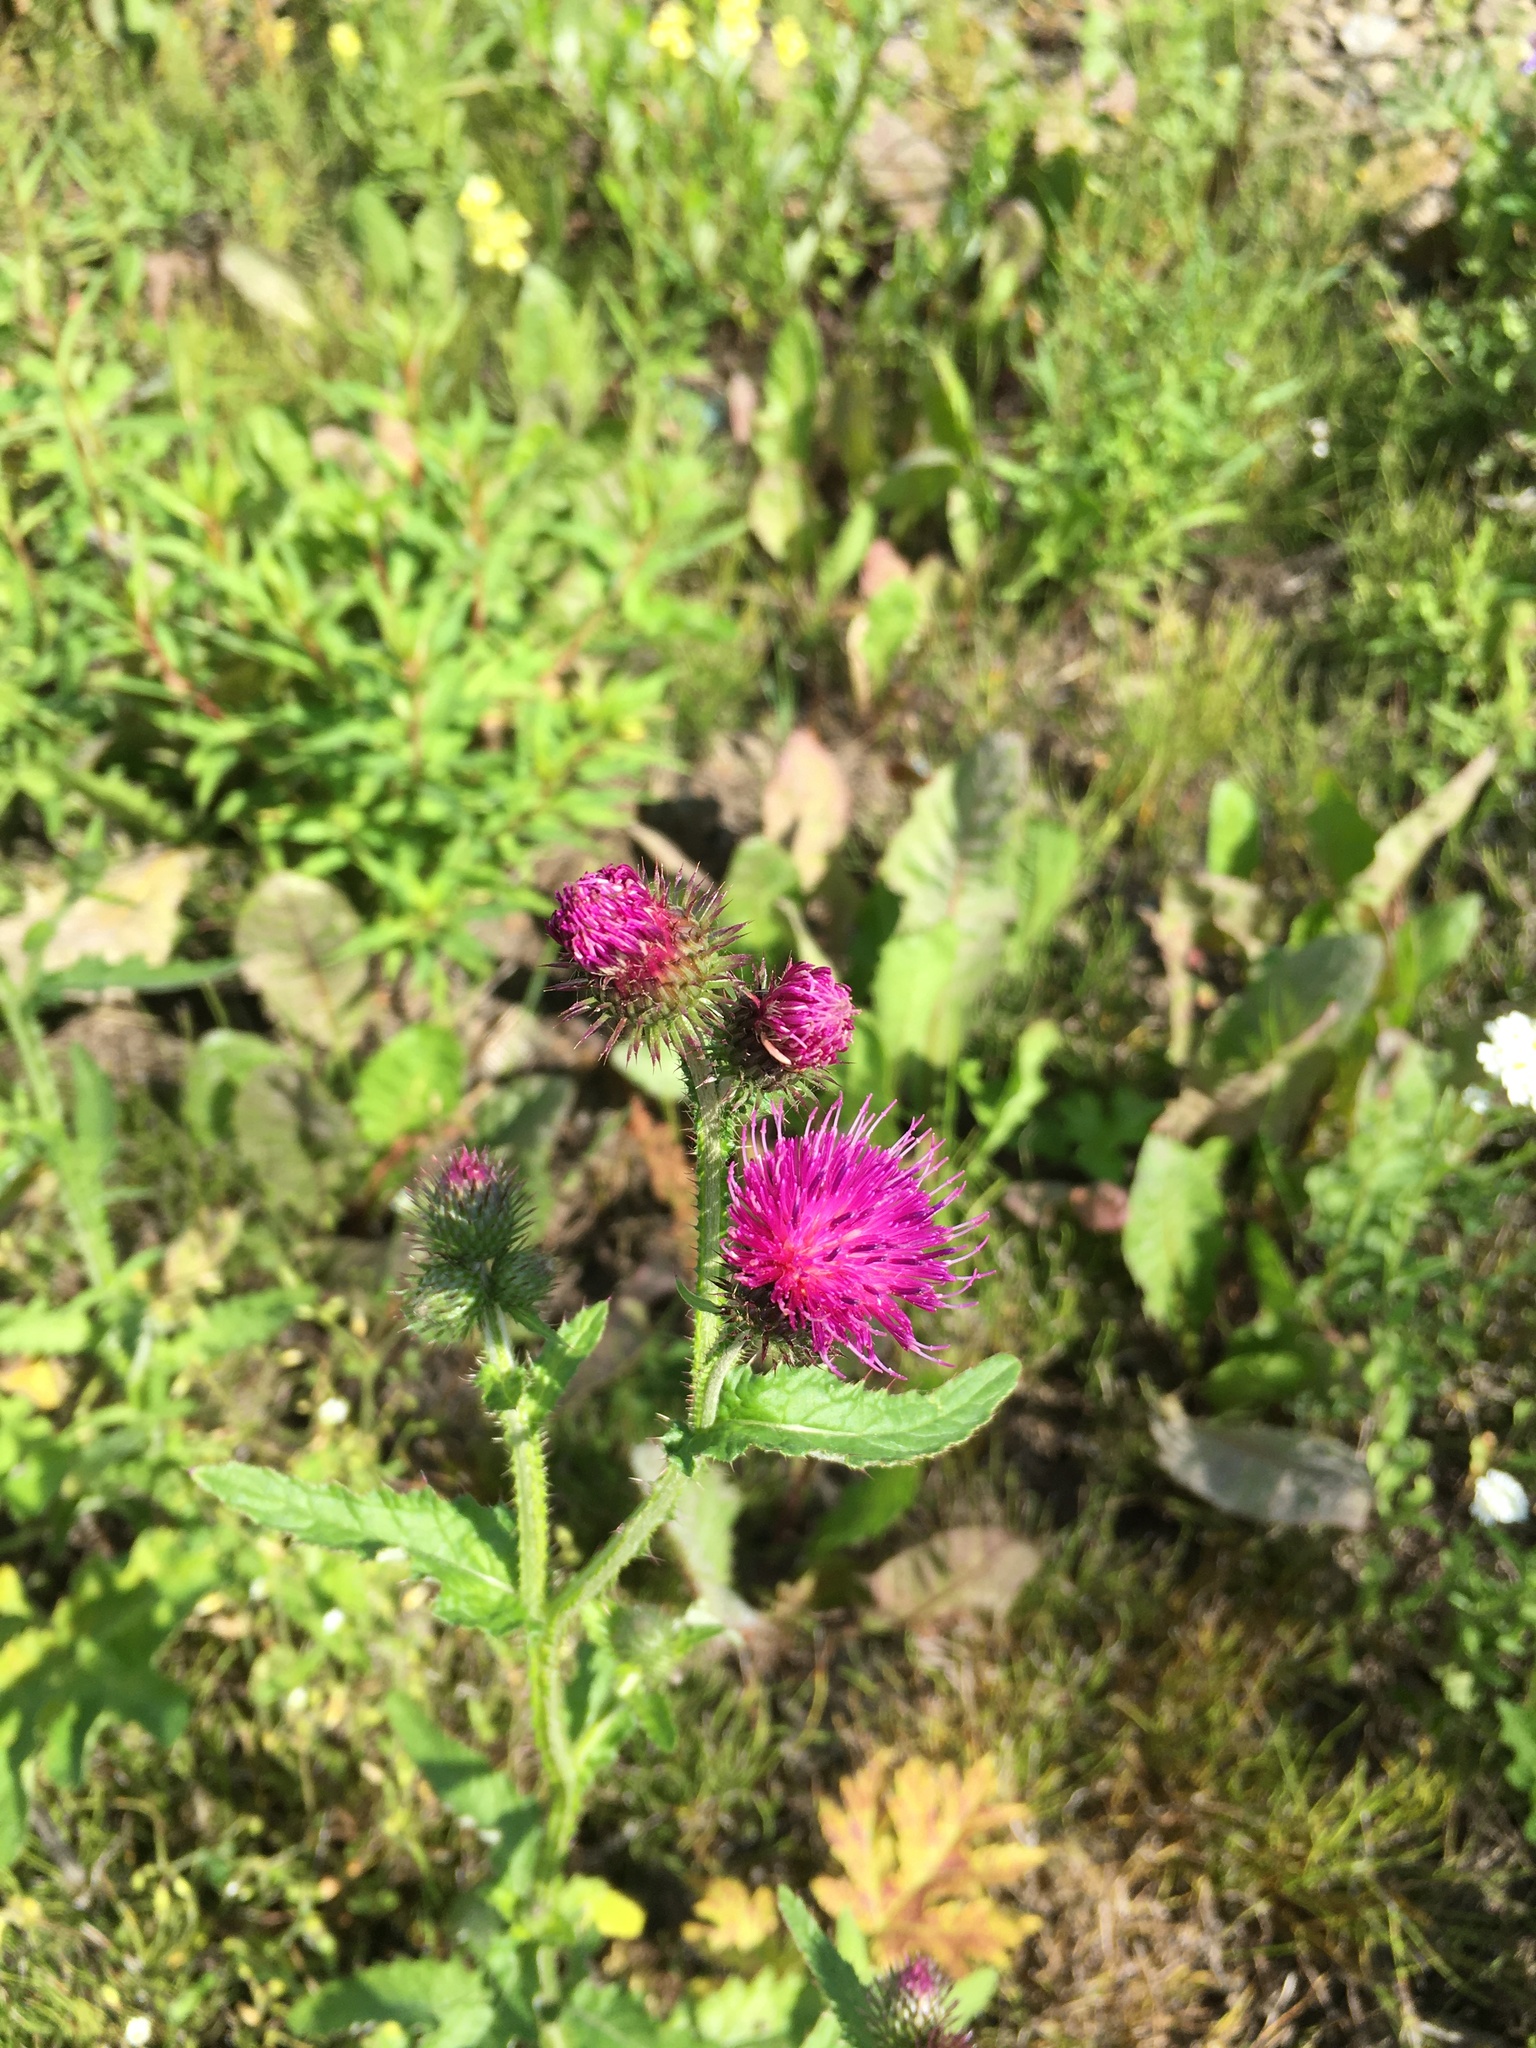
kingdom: Plantae
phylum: Tracheophyta
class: Magnoliopsida
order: Asterales
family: Asteraceae
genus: Carduus
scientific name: Carduus crispus
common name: Welted thistle
